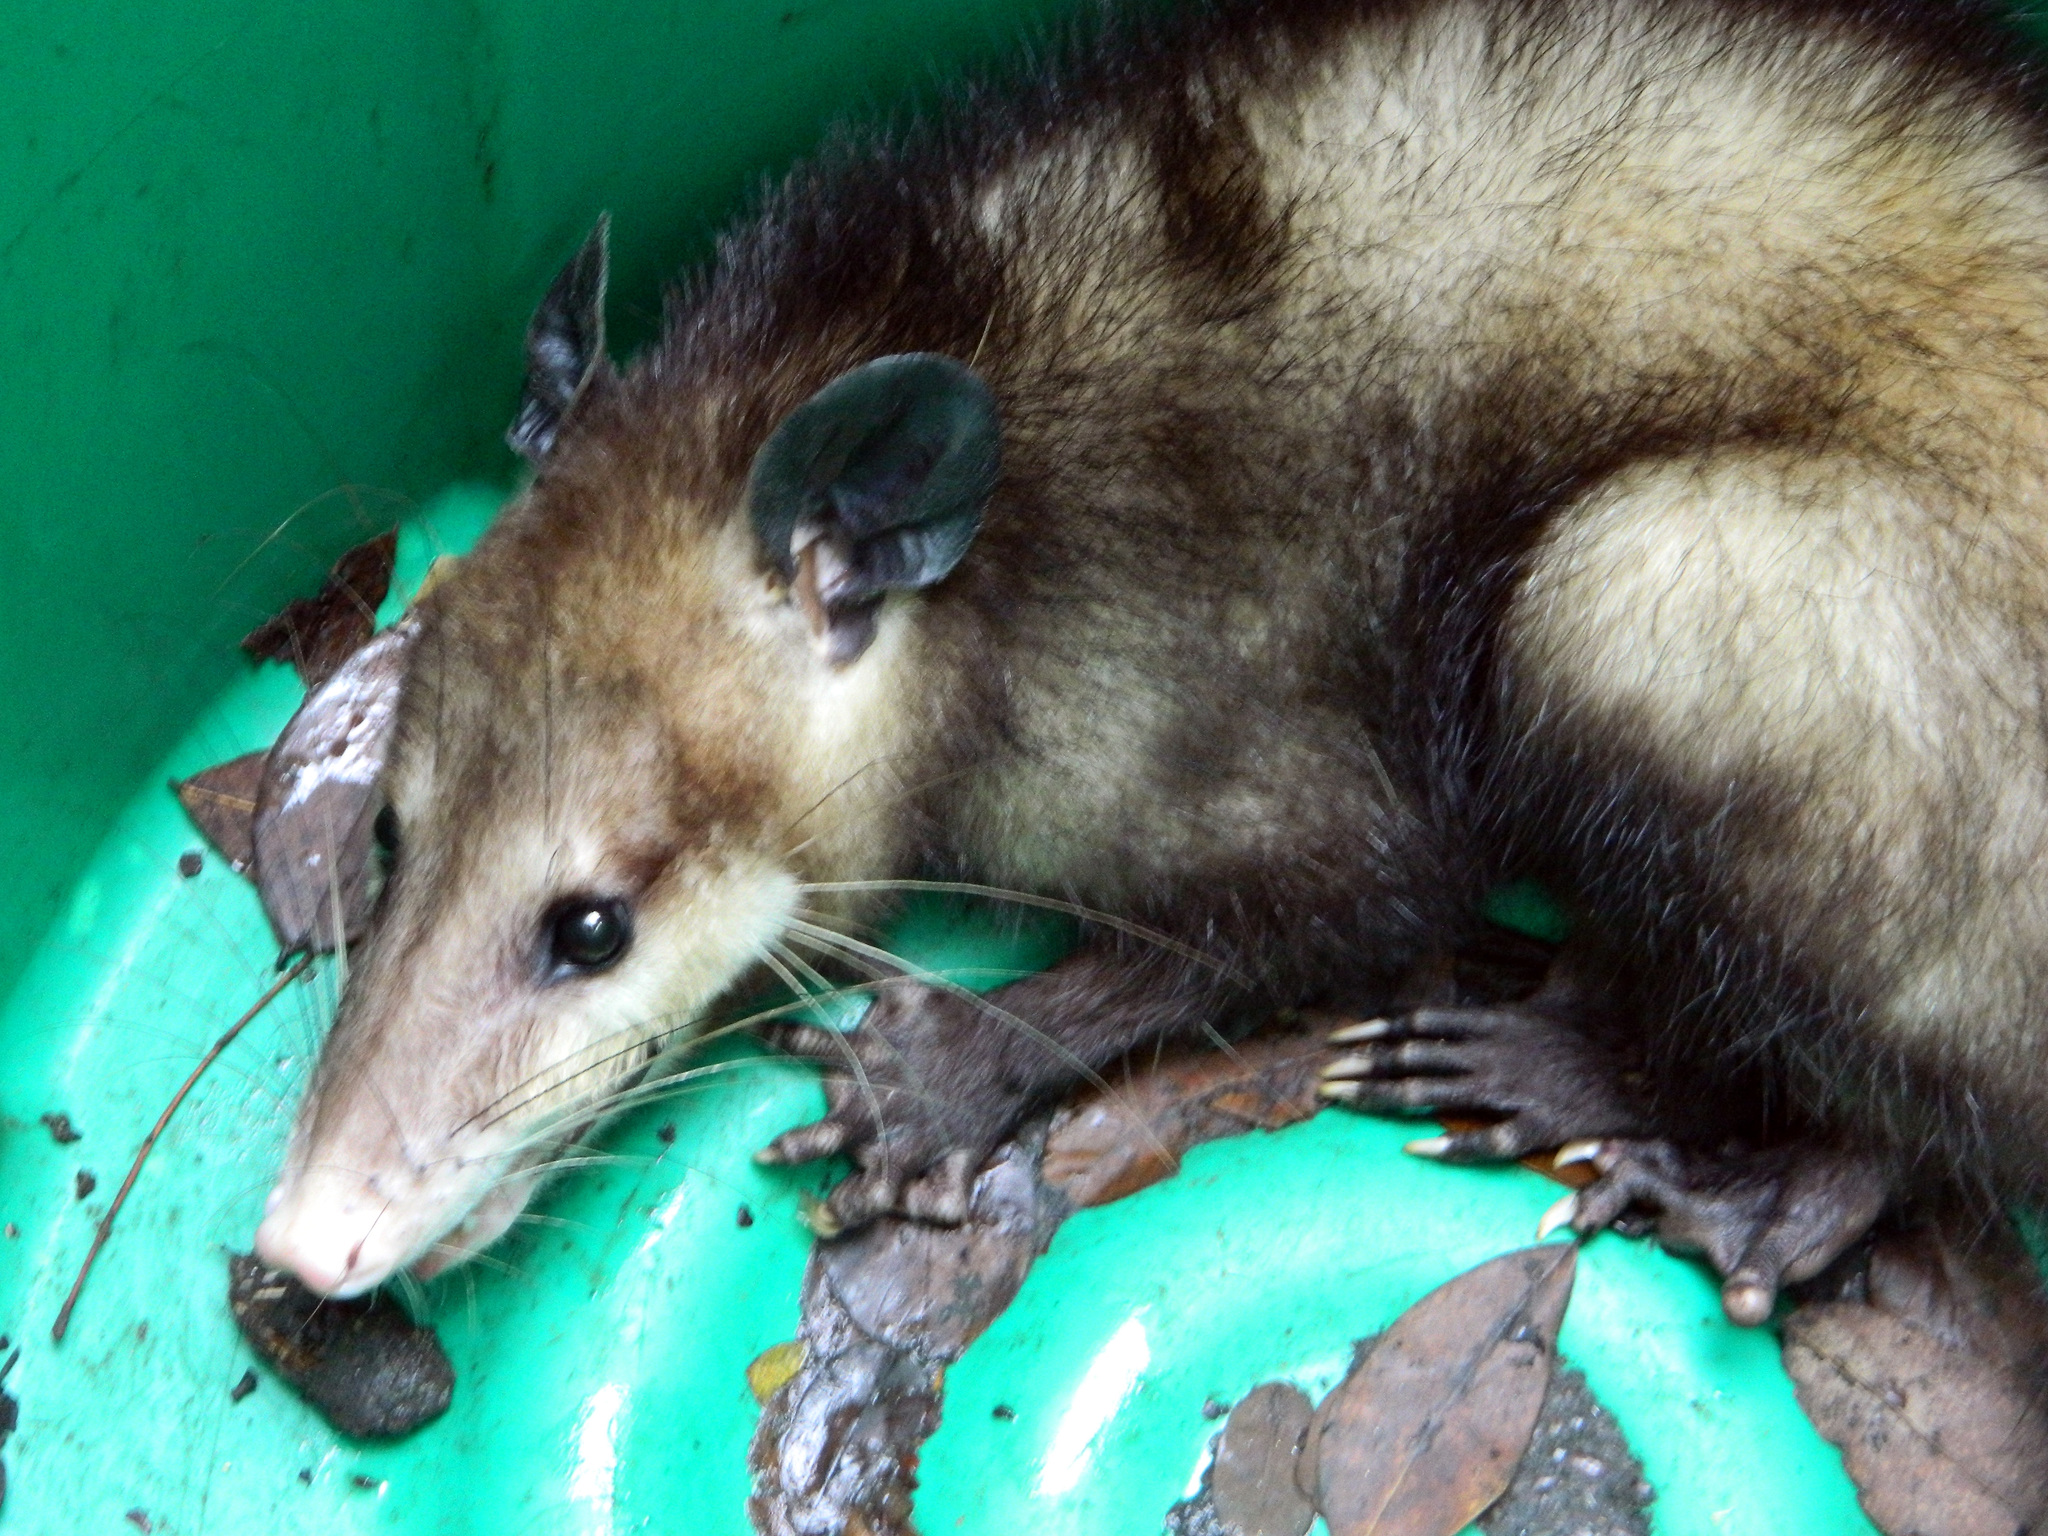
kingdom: Animalia
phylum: Chordata
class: Mammalia
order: Didelphimorphia
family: Didelphidae
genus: Didelphis
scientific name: Didelphis virginiana
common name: Virginia opossum
